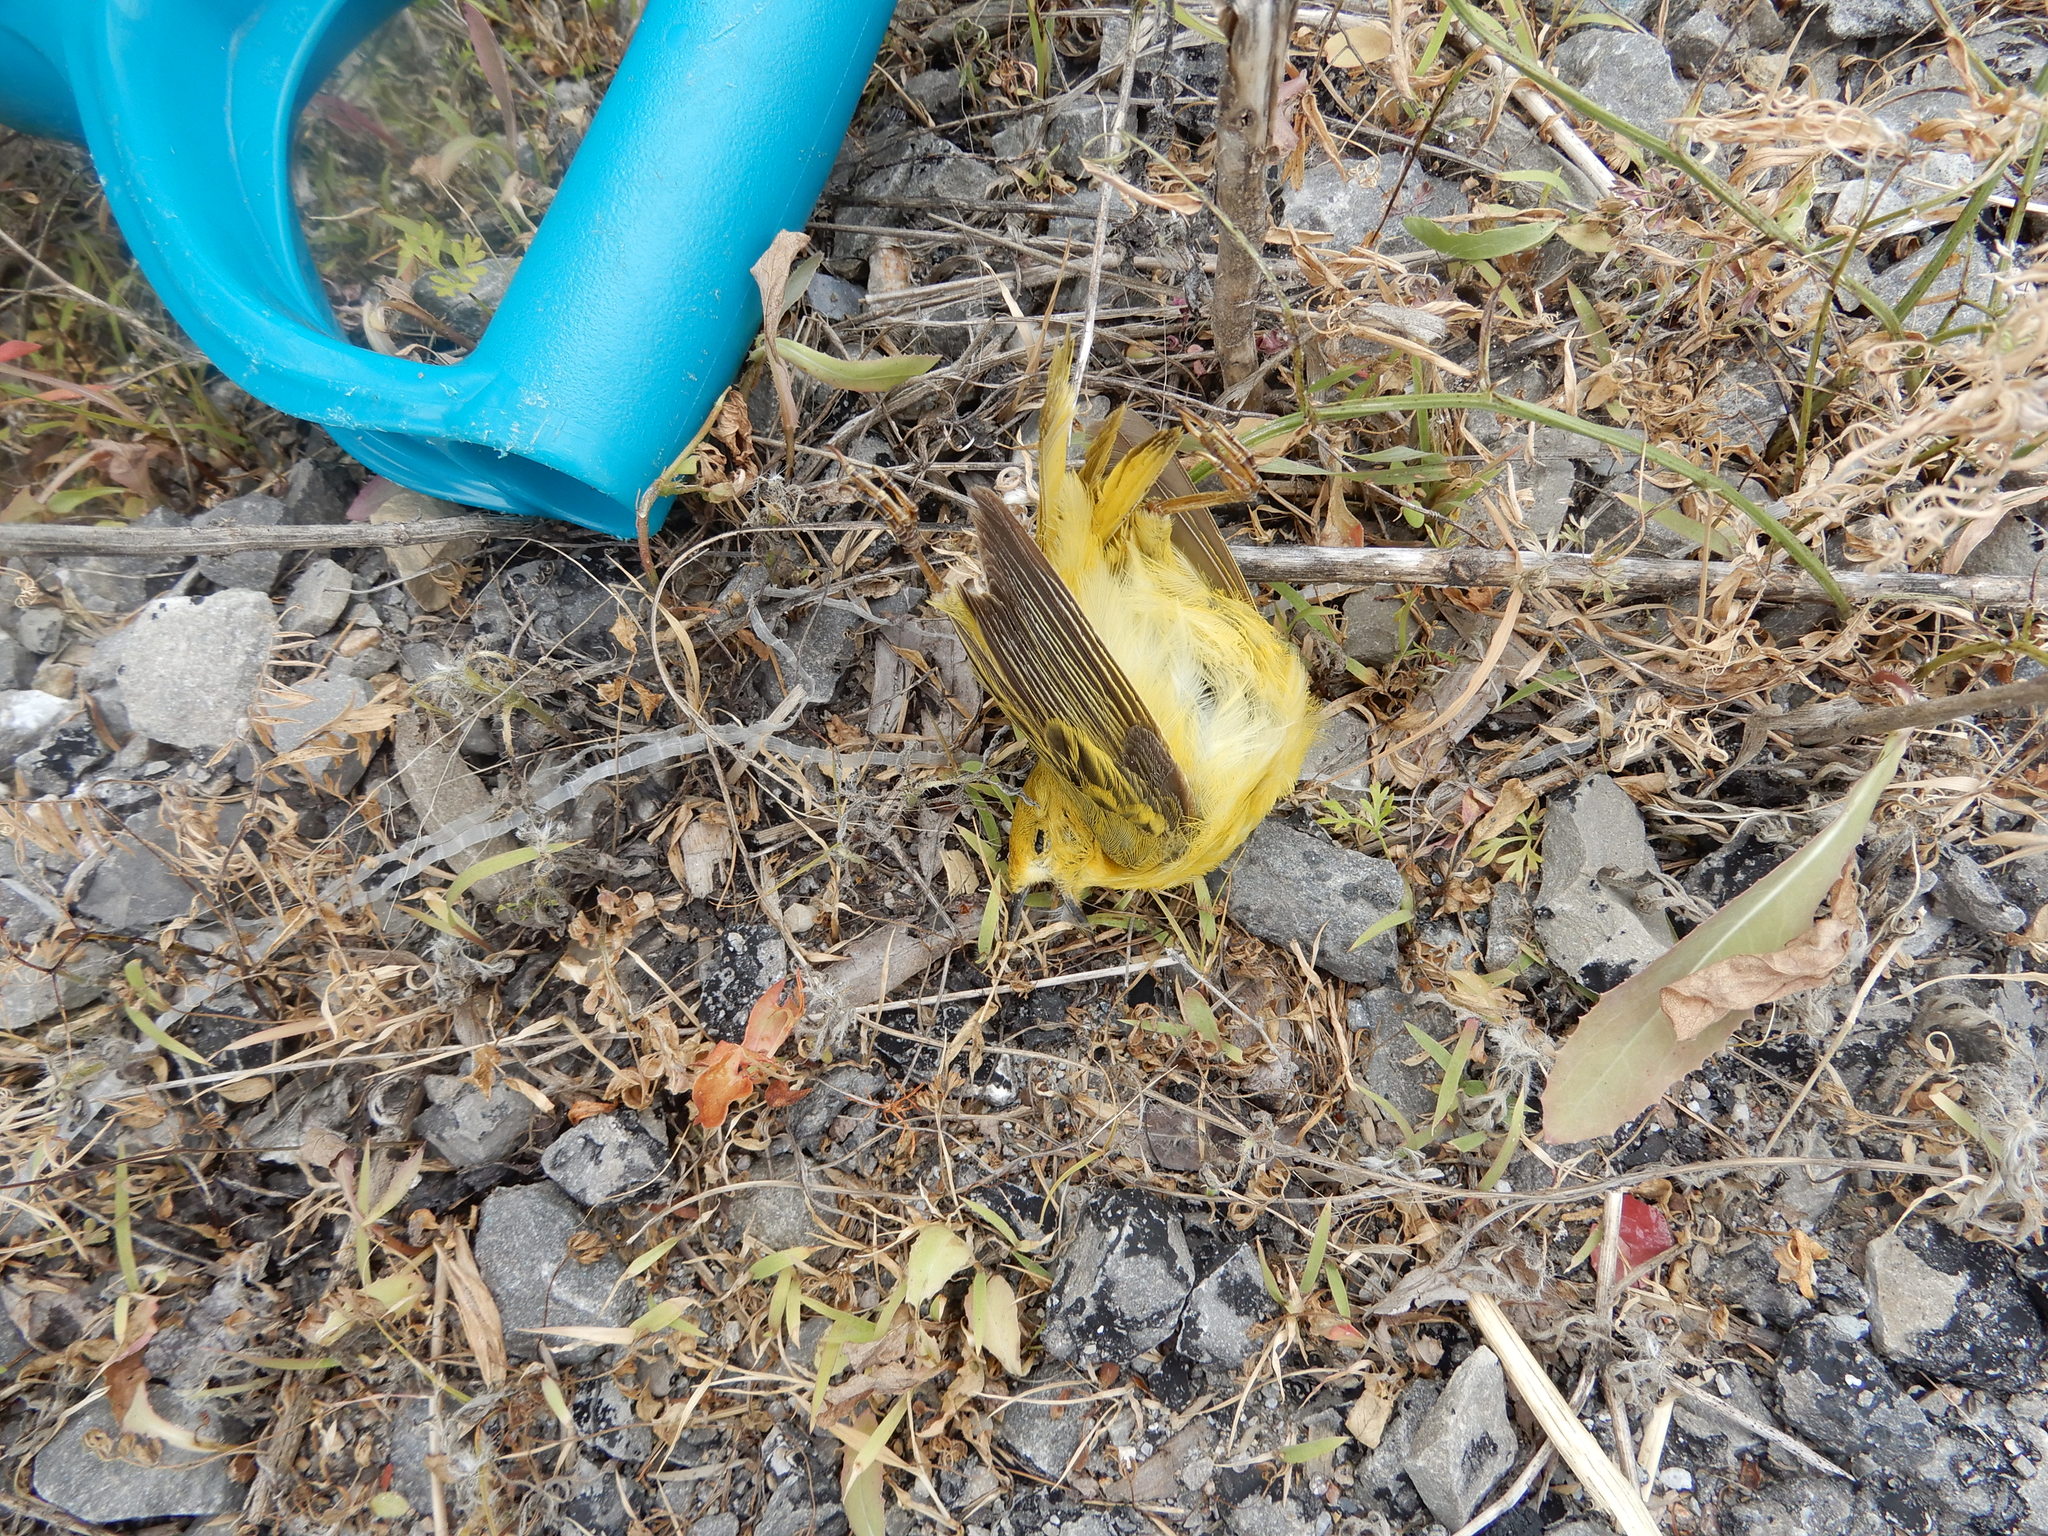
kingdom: Animalia
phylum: Chordata
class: Aves
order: Passeriformes
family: Parulidae
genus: Setophaga
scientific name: Setophaga petechia
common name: Yellow warbler
